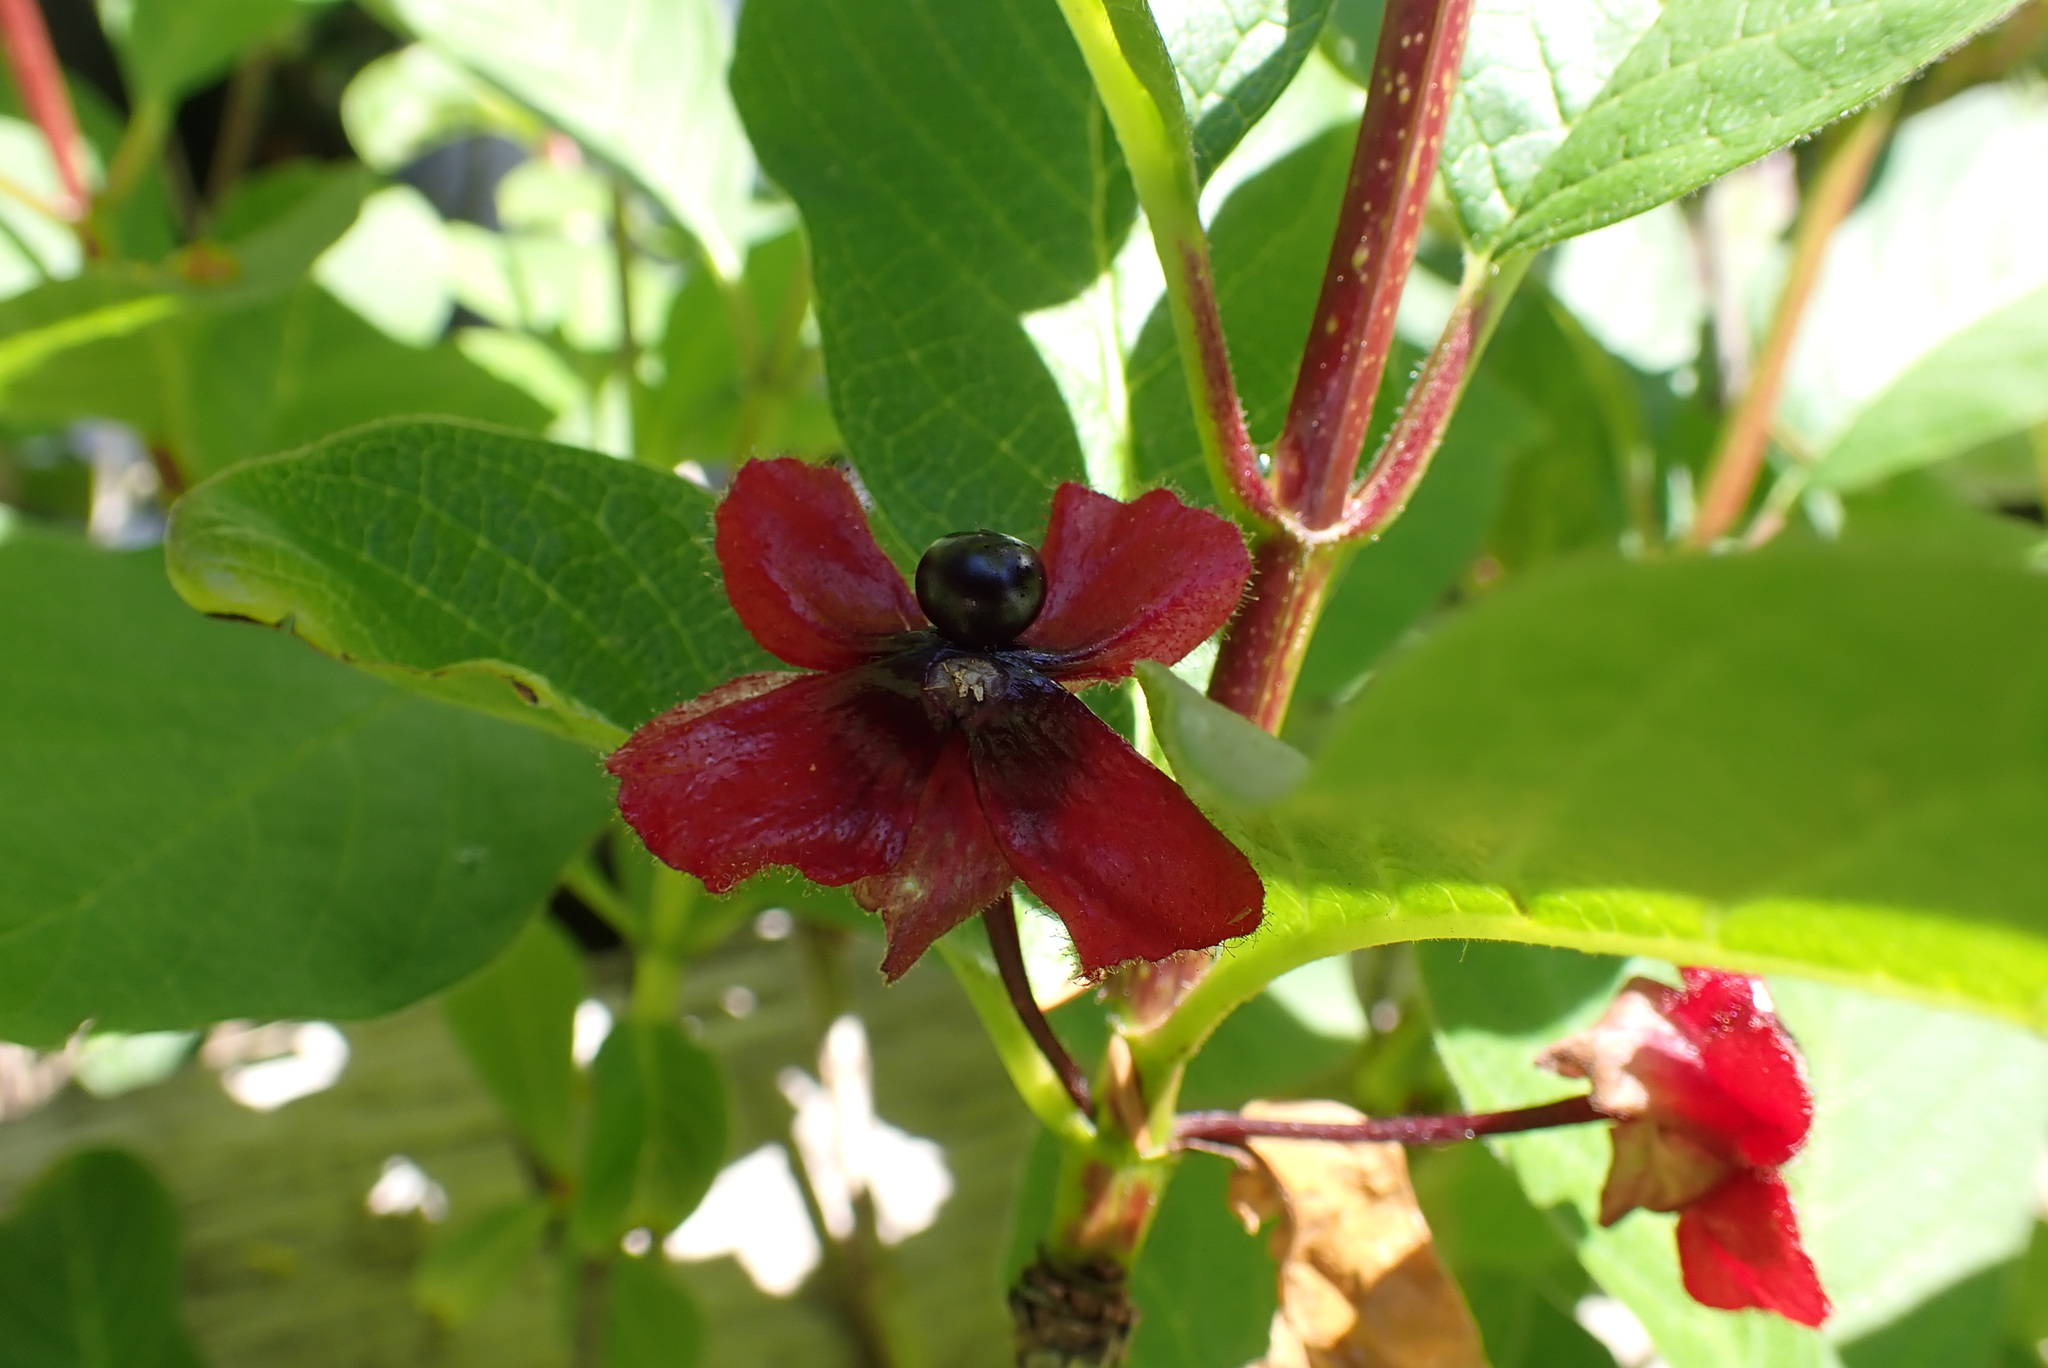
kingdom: Plantae
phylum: Tracheophyta
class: Magnoliopsida
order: Dipsacales
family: Caprifoliaceae
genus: Lonicera
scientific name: Lonicera involucrata
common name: Californian honeysuckle
